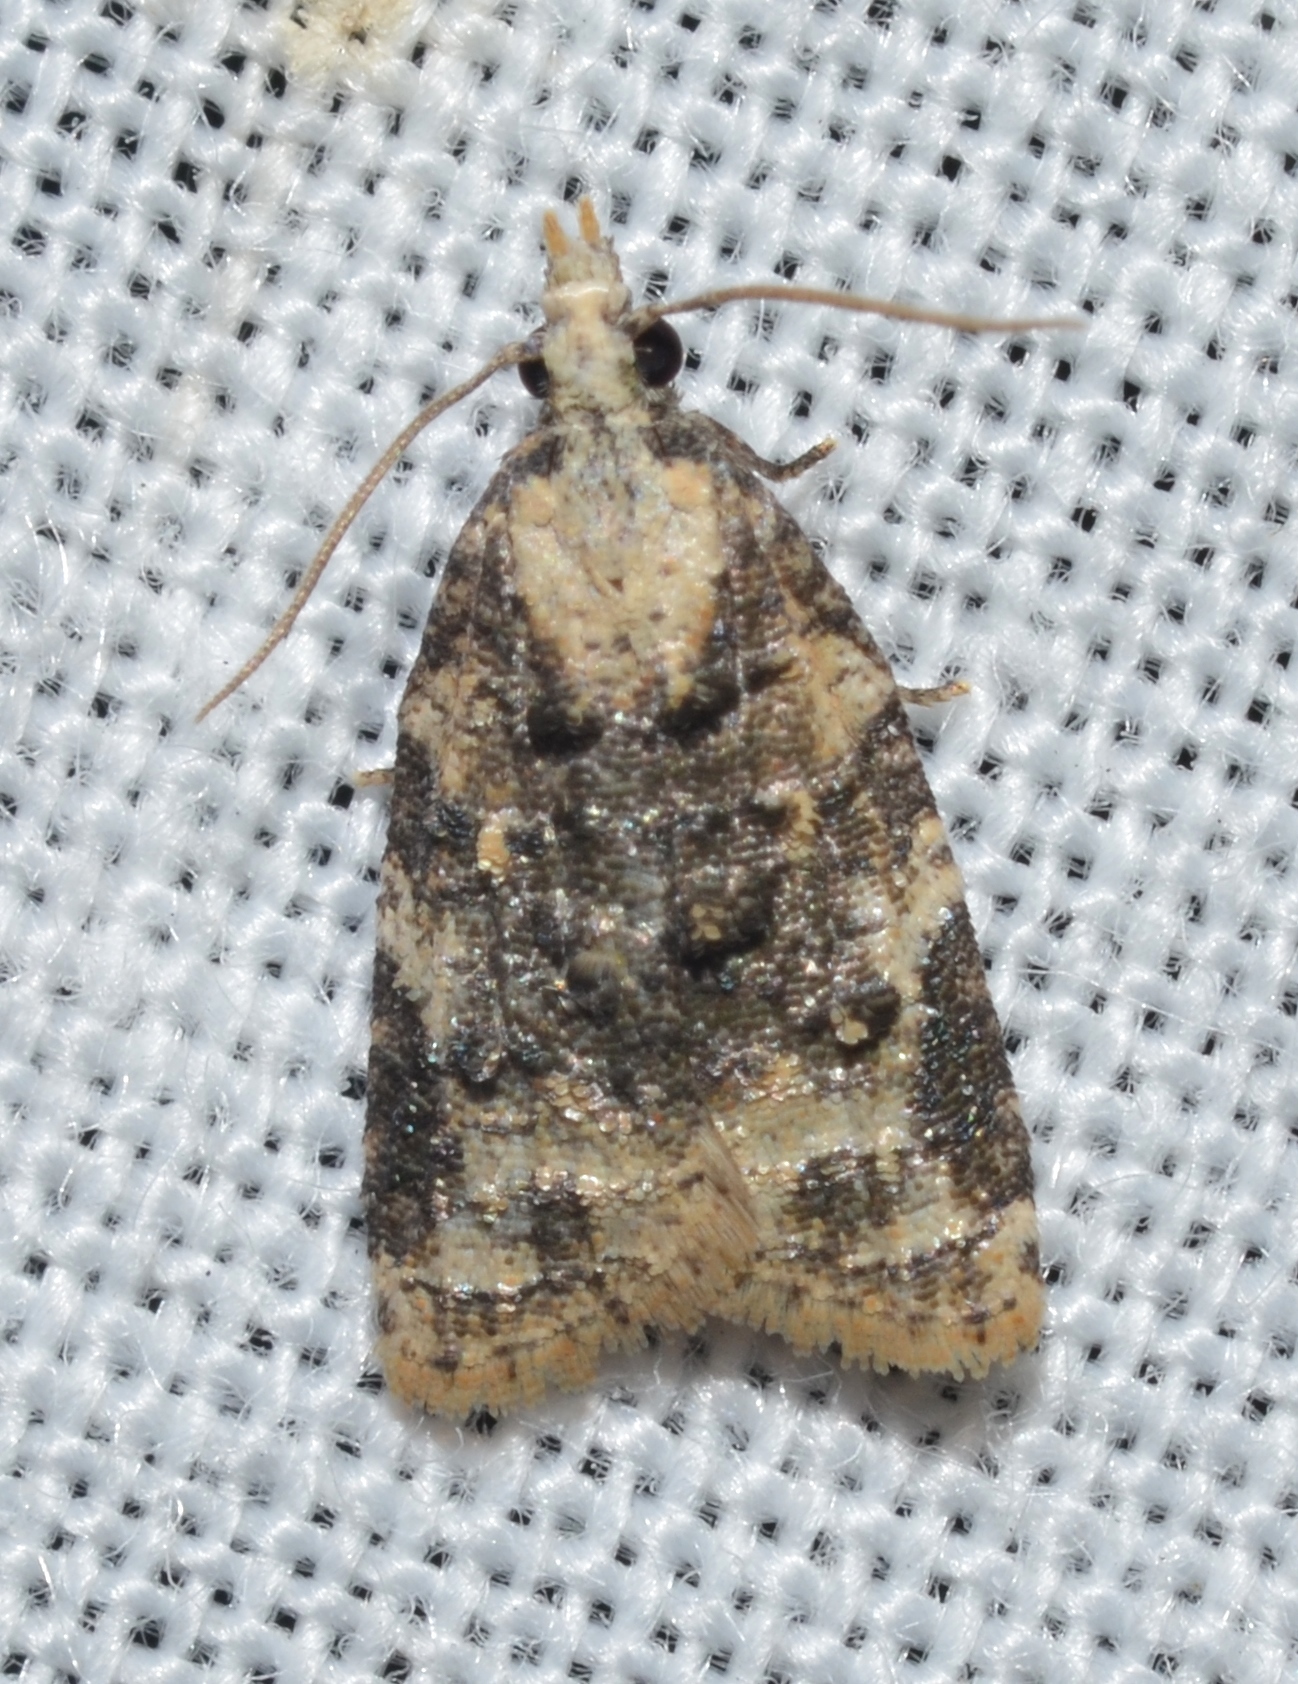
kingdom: Animalia
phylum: Arthropoda
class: Insecta
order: Lepidoptera
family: Tortricidae
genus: Platynota
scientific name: Platynota exasperatana
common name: Exasperating platynota moth
